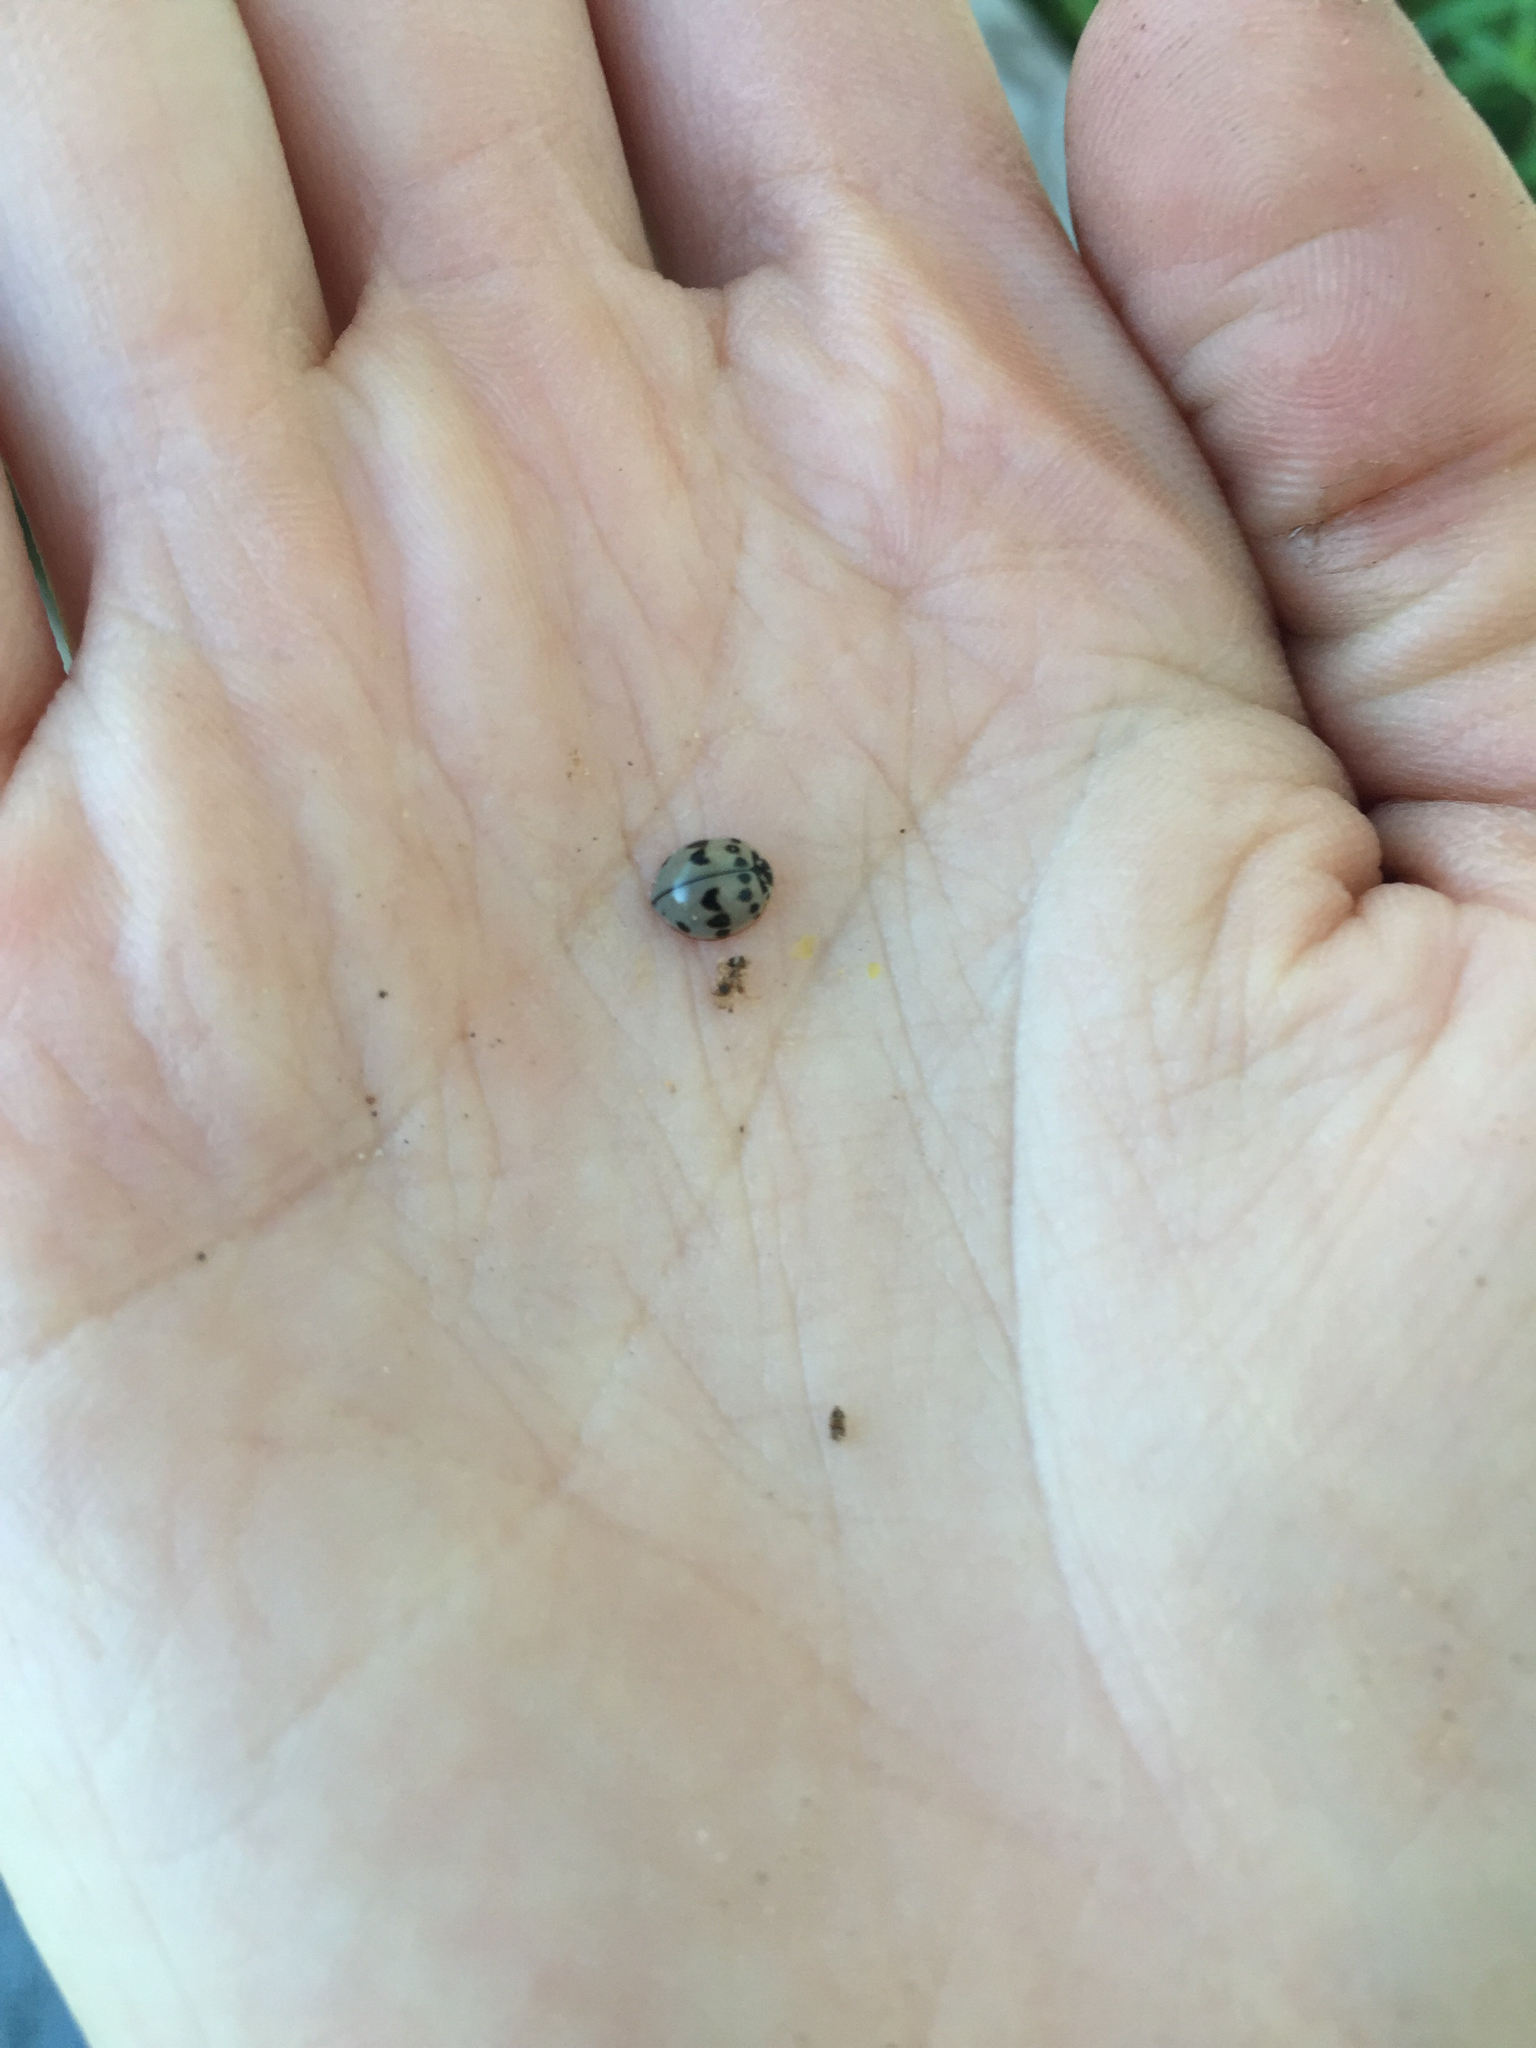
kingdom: Animalia
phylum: Arthropoda
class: Insecta
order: Coleoptera
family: Coccinellidae
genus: Olla
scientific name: Olla v-nigrum
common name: Ashy gray lady beetle
